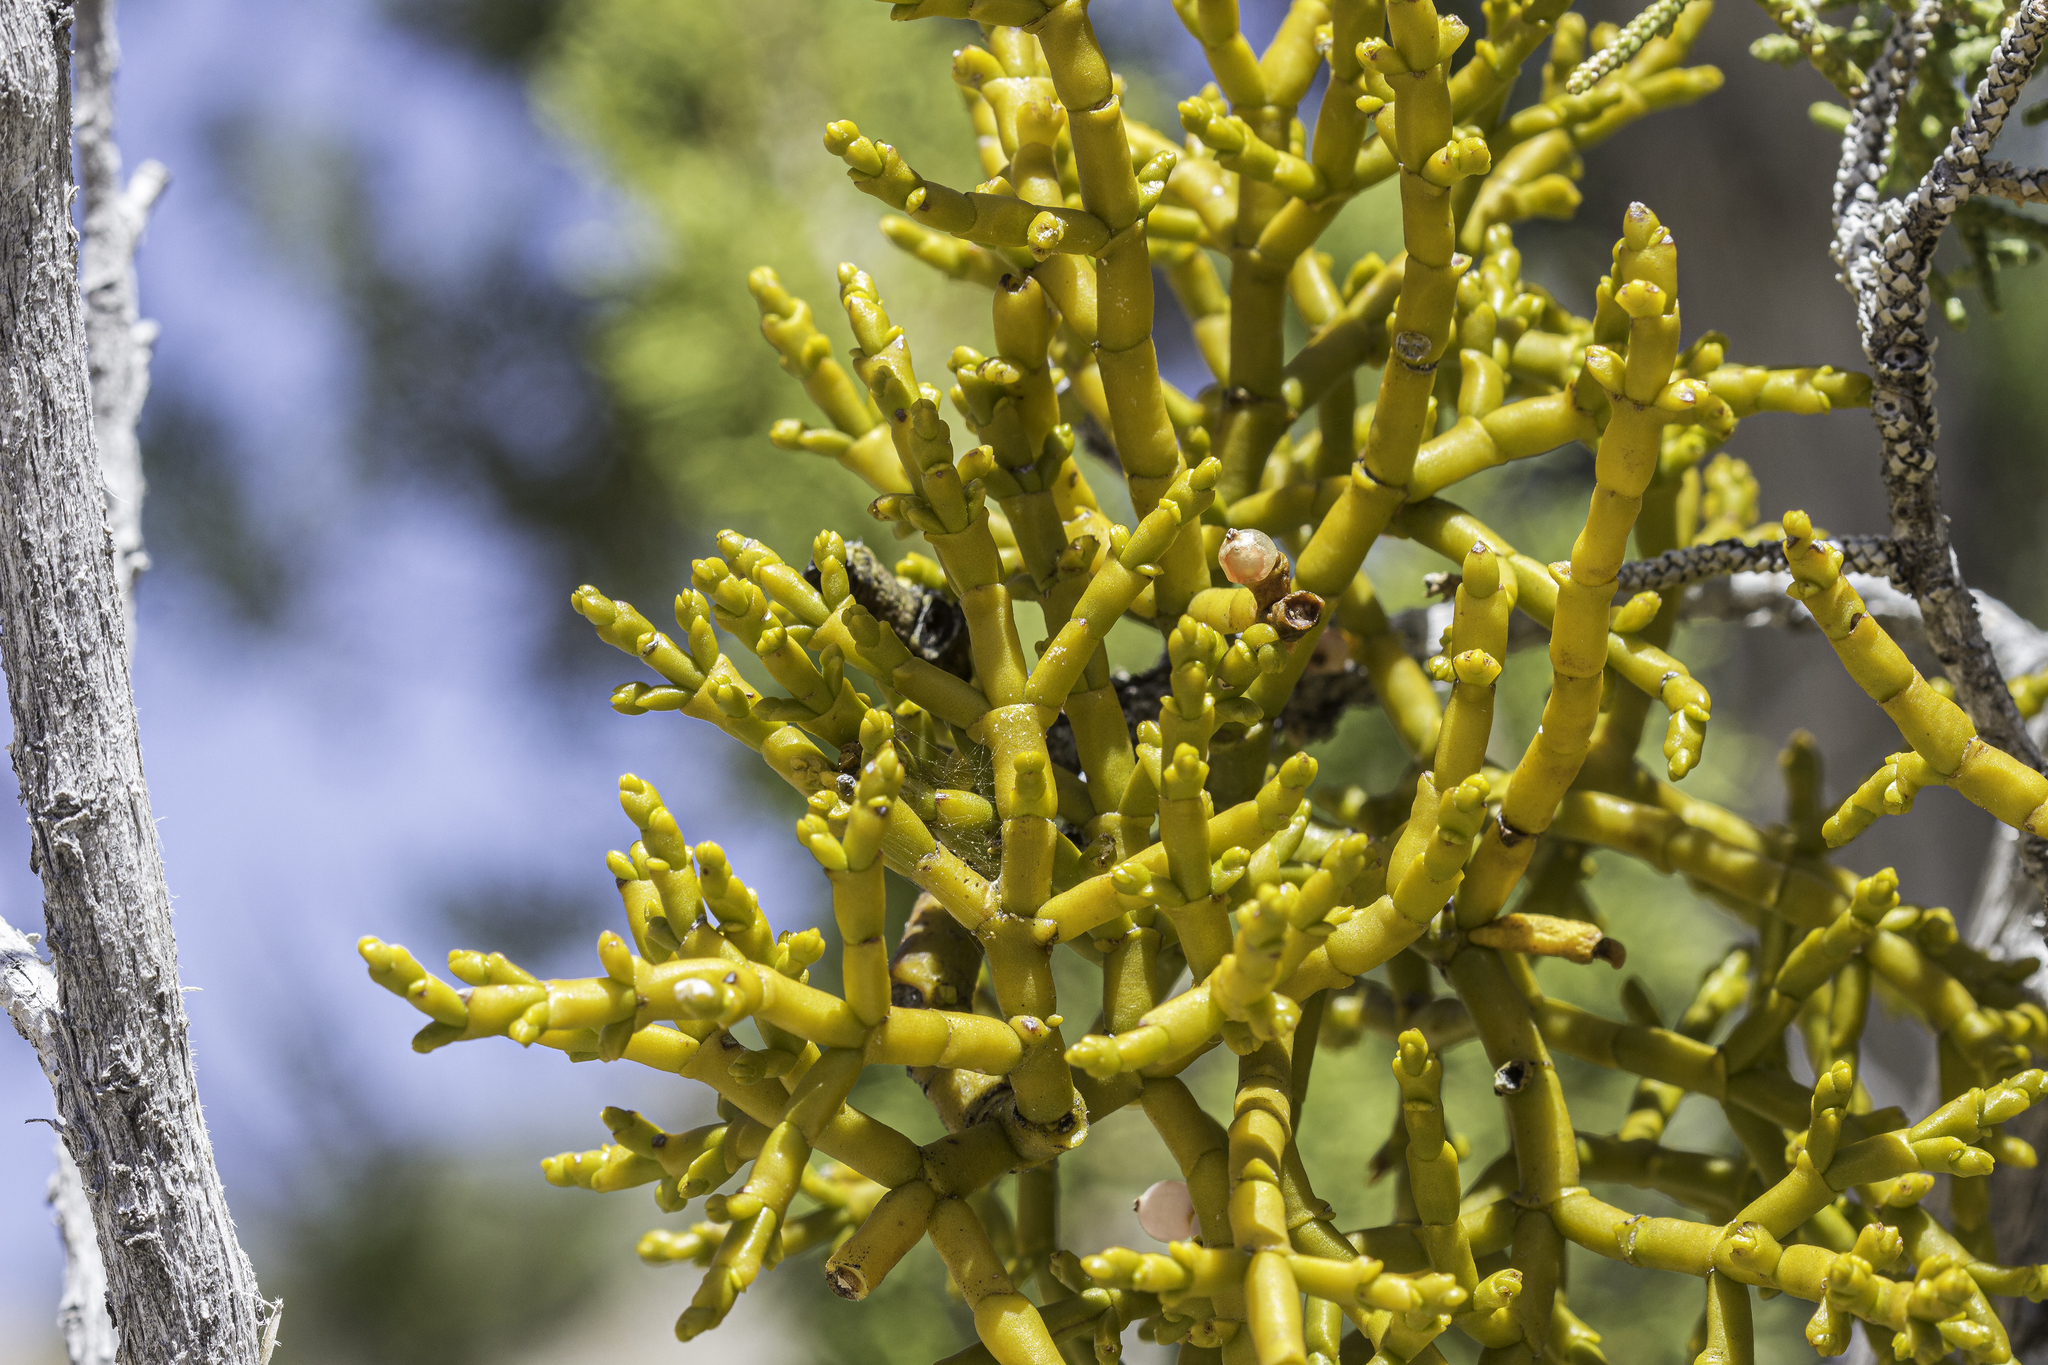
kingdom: Plantae
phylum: Tracheophyta
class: Magnoliopsida
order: Santalales
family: Viscaceae
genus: Phoradendron
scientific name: Phoradendron juniperinum
